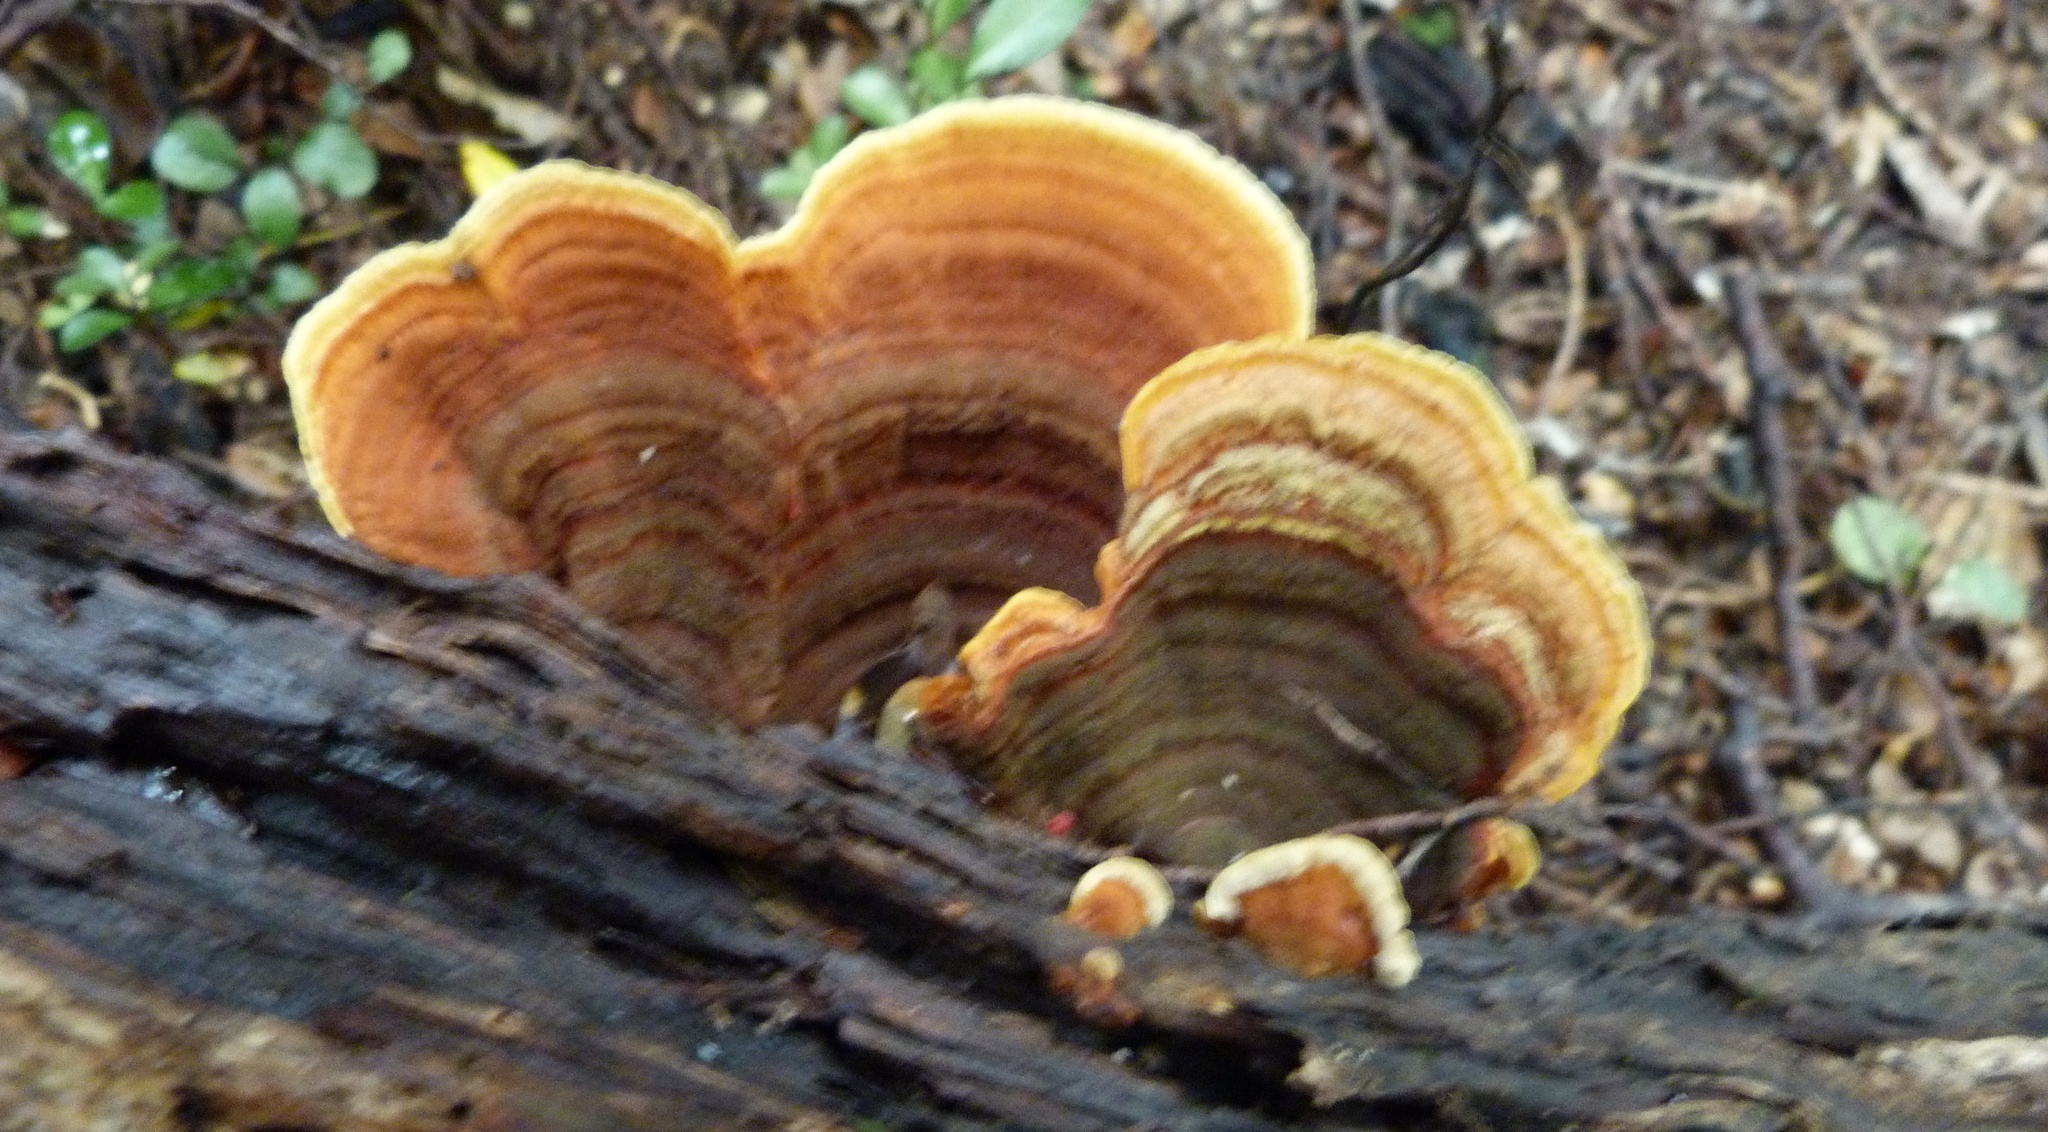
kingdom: Fungi
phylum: Basidiomycota
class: Agaricomycetes
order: Russulales
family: Stereaceae
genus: Stereum
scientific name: Stereum versicolor
